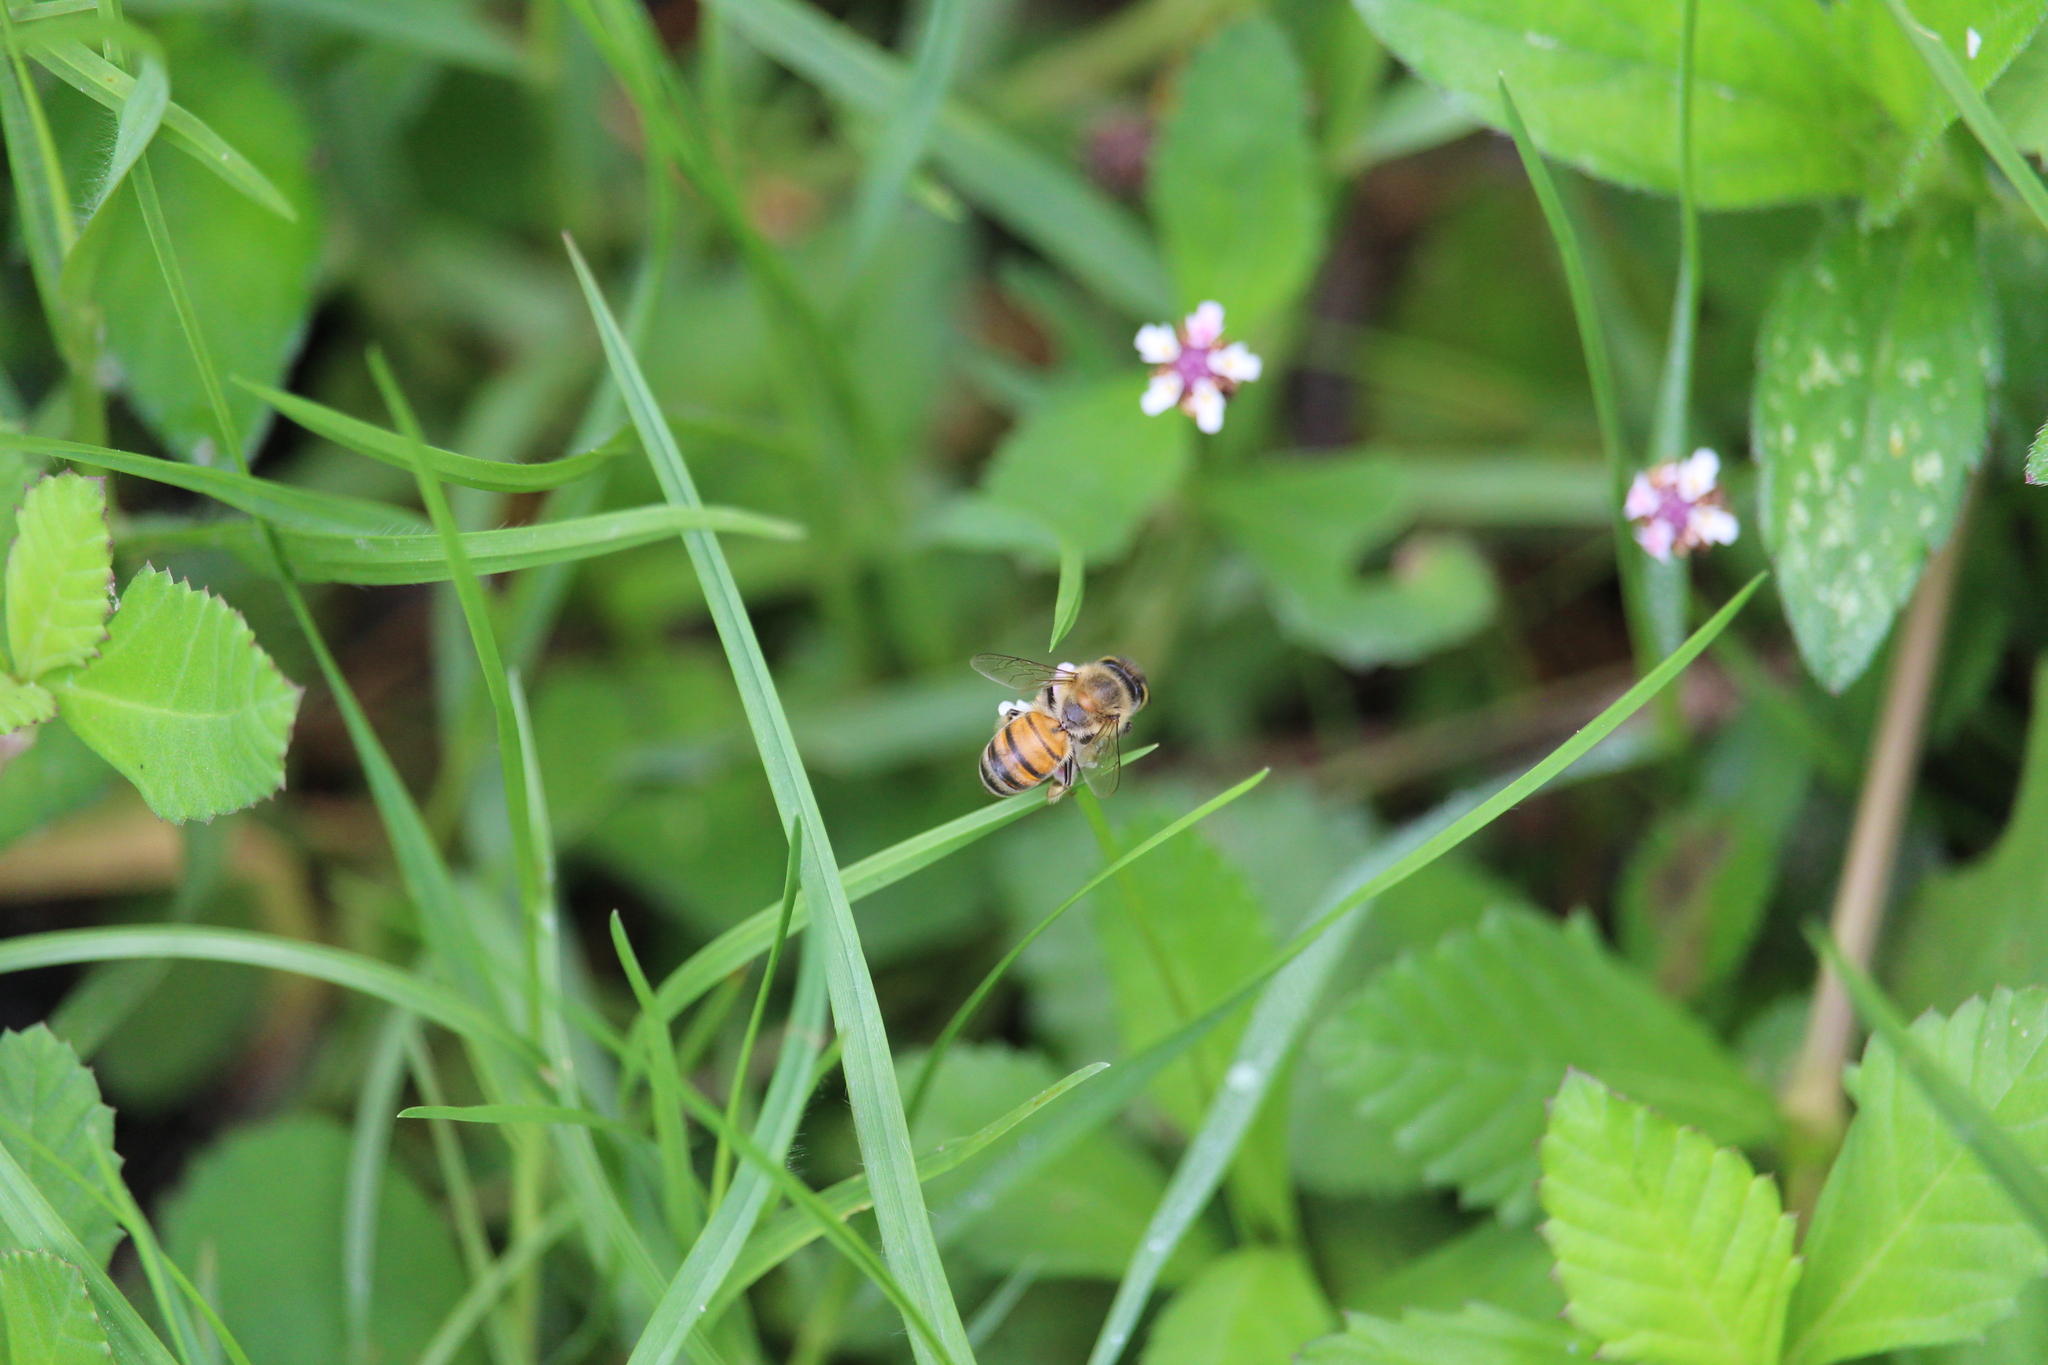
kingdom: Animalia
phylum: Arthropoda
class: Insecta
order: Hymenoptera
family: Apidae
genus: Apis
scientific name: Apis mellifera
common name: Honey bee
